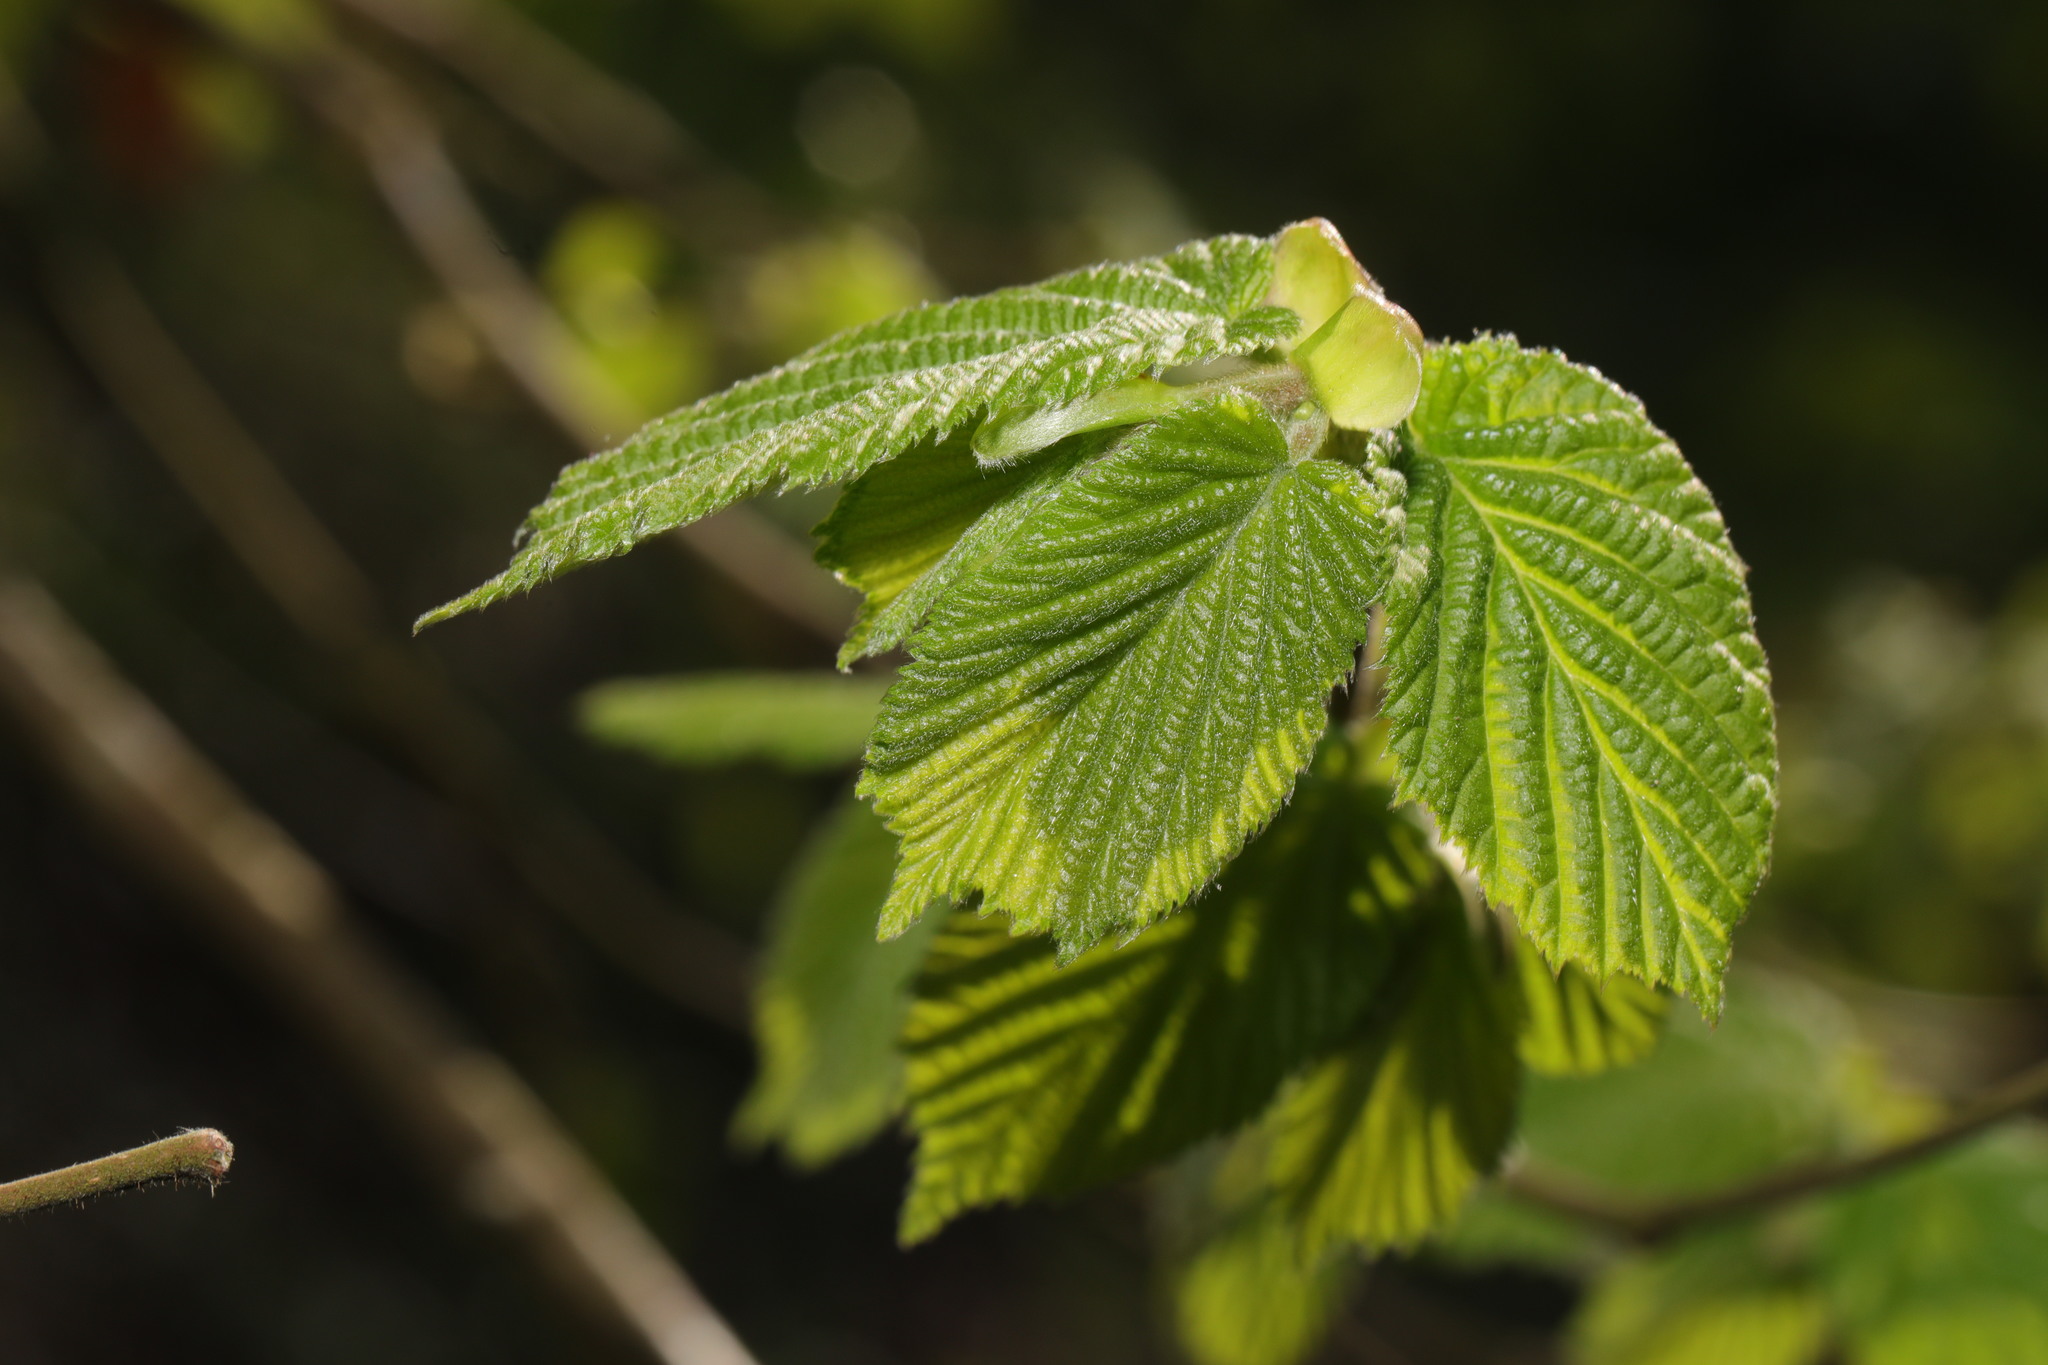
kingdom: Plantae
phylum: Tracheophyta
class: Magnoliopsida
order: Fagales
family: Betulaceae
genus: Corylus
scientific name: Corylus avellana
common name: European hazel
